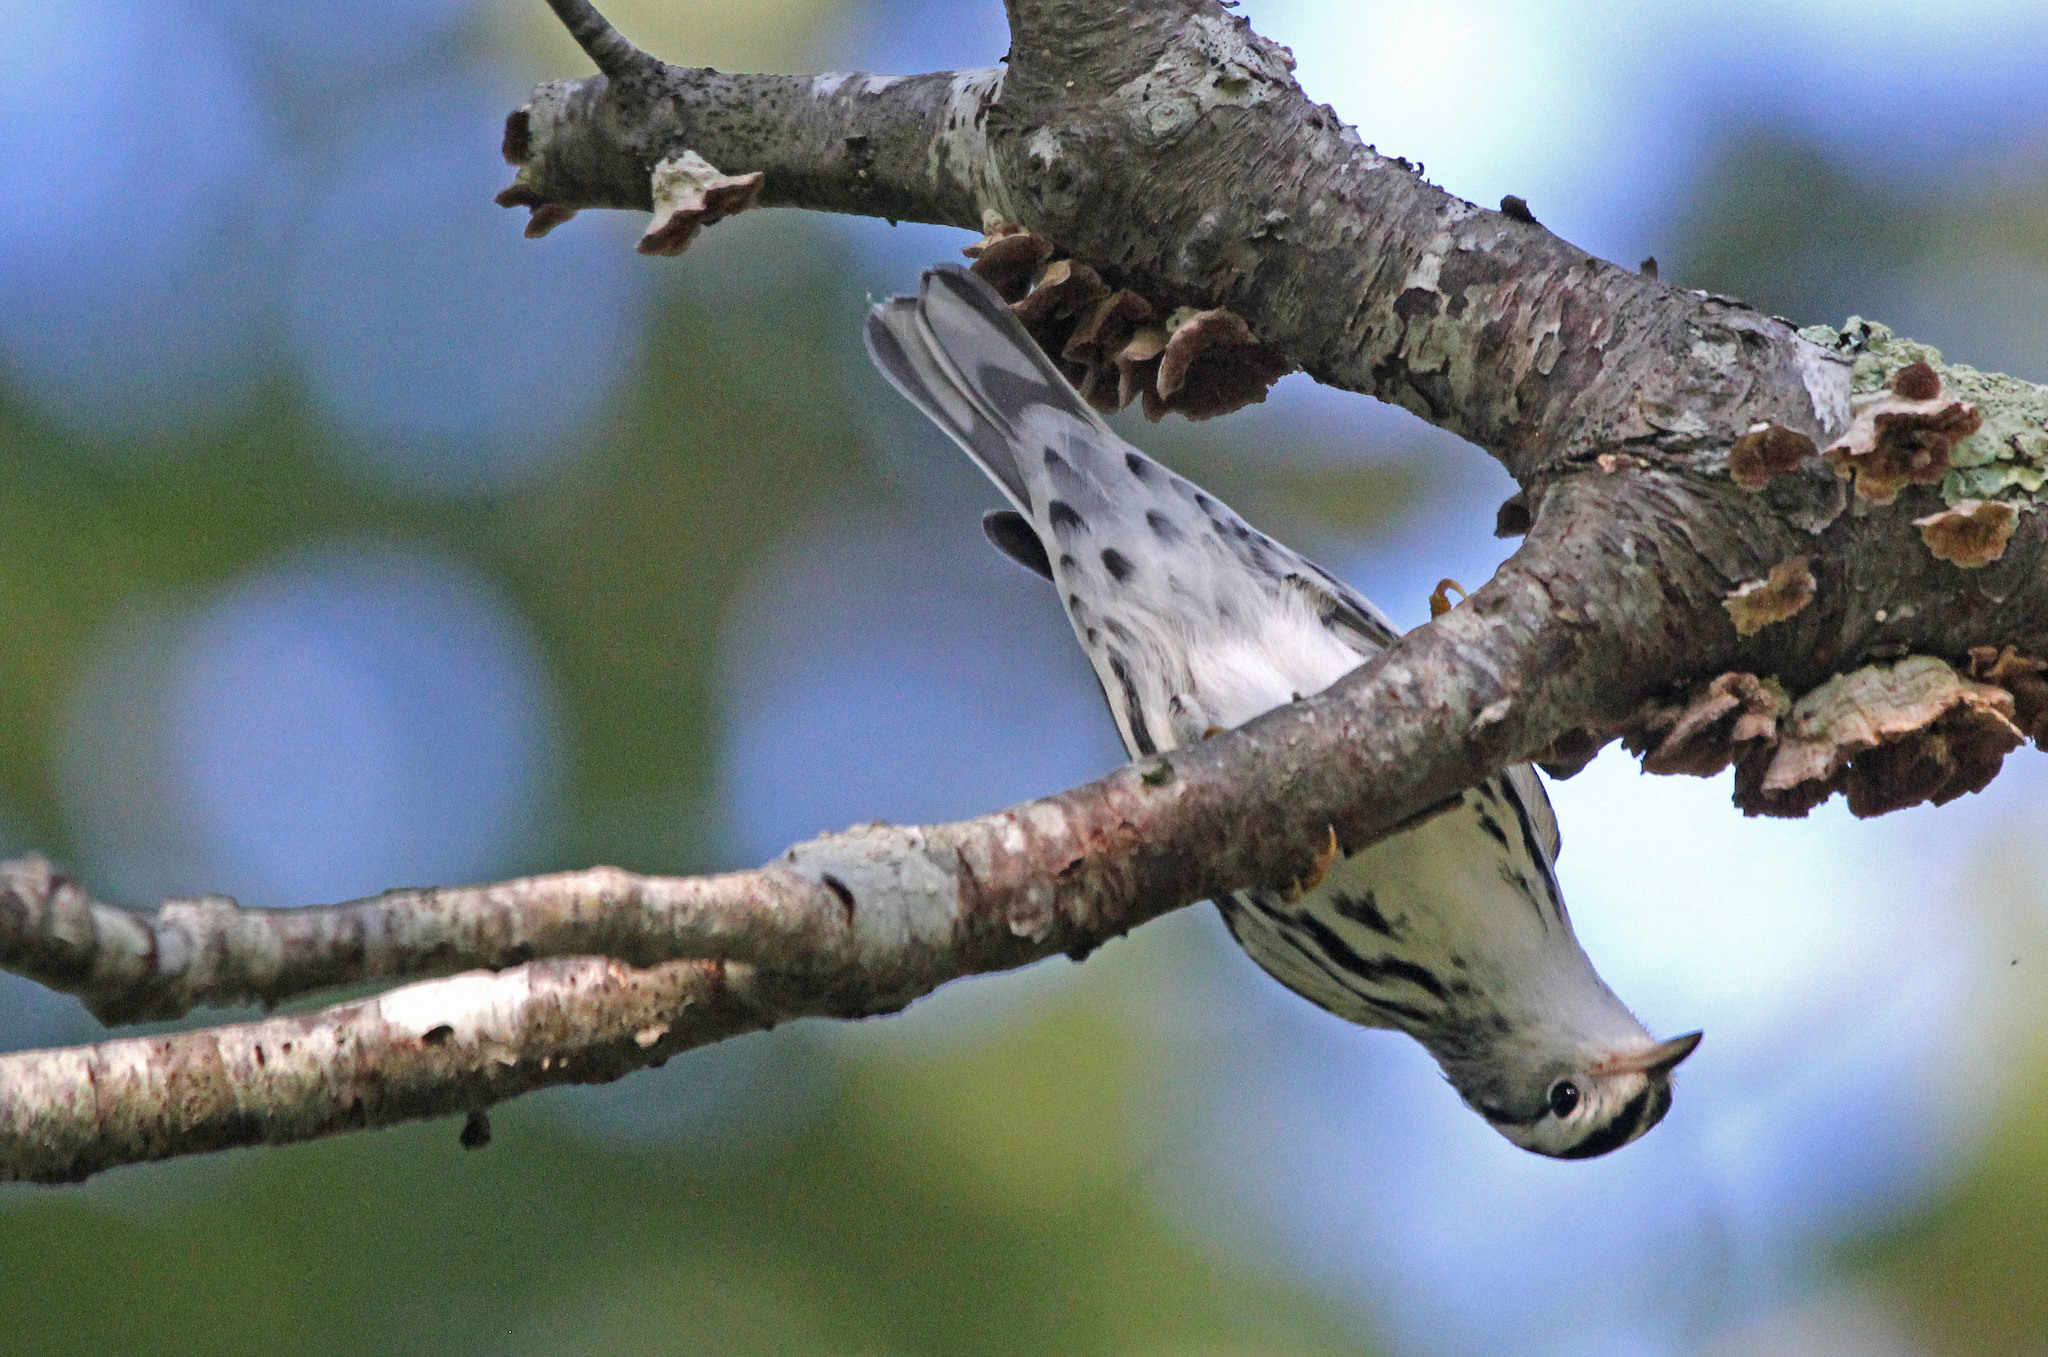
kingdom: Animalia
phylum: Chordata
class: Aves
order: Passeriformes
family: Parulidae
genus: Mniotilta
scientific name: Mniotilta varia
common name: Black-and-white warbler
